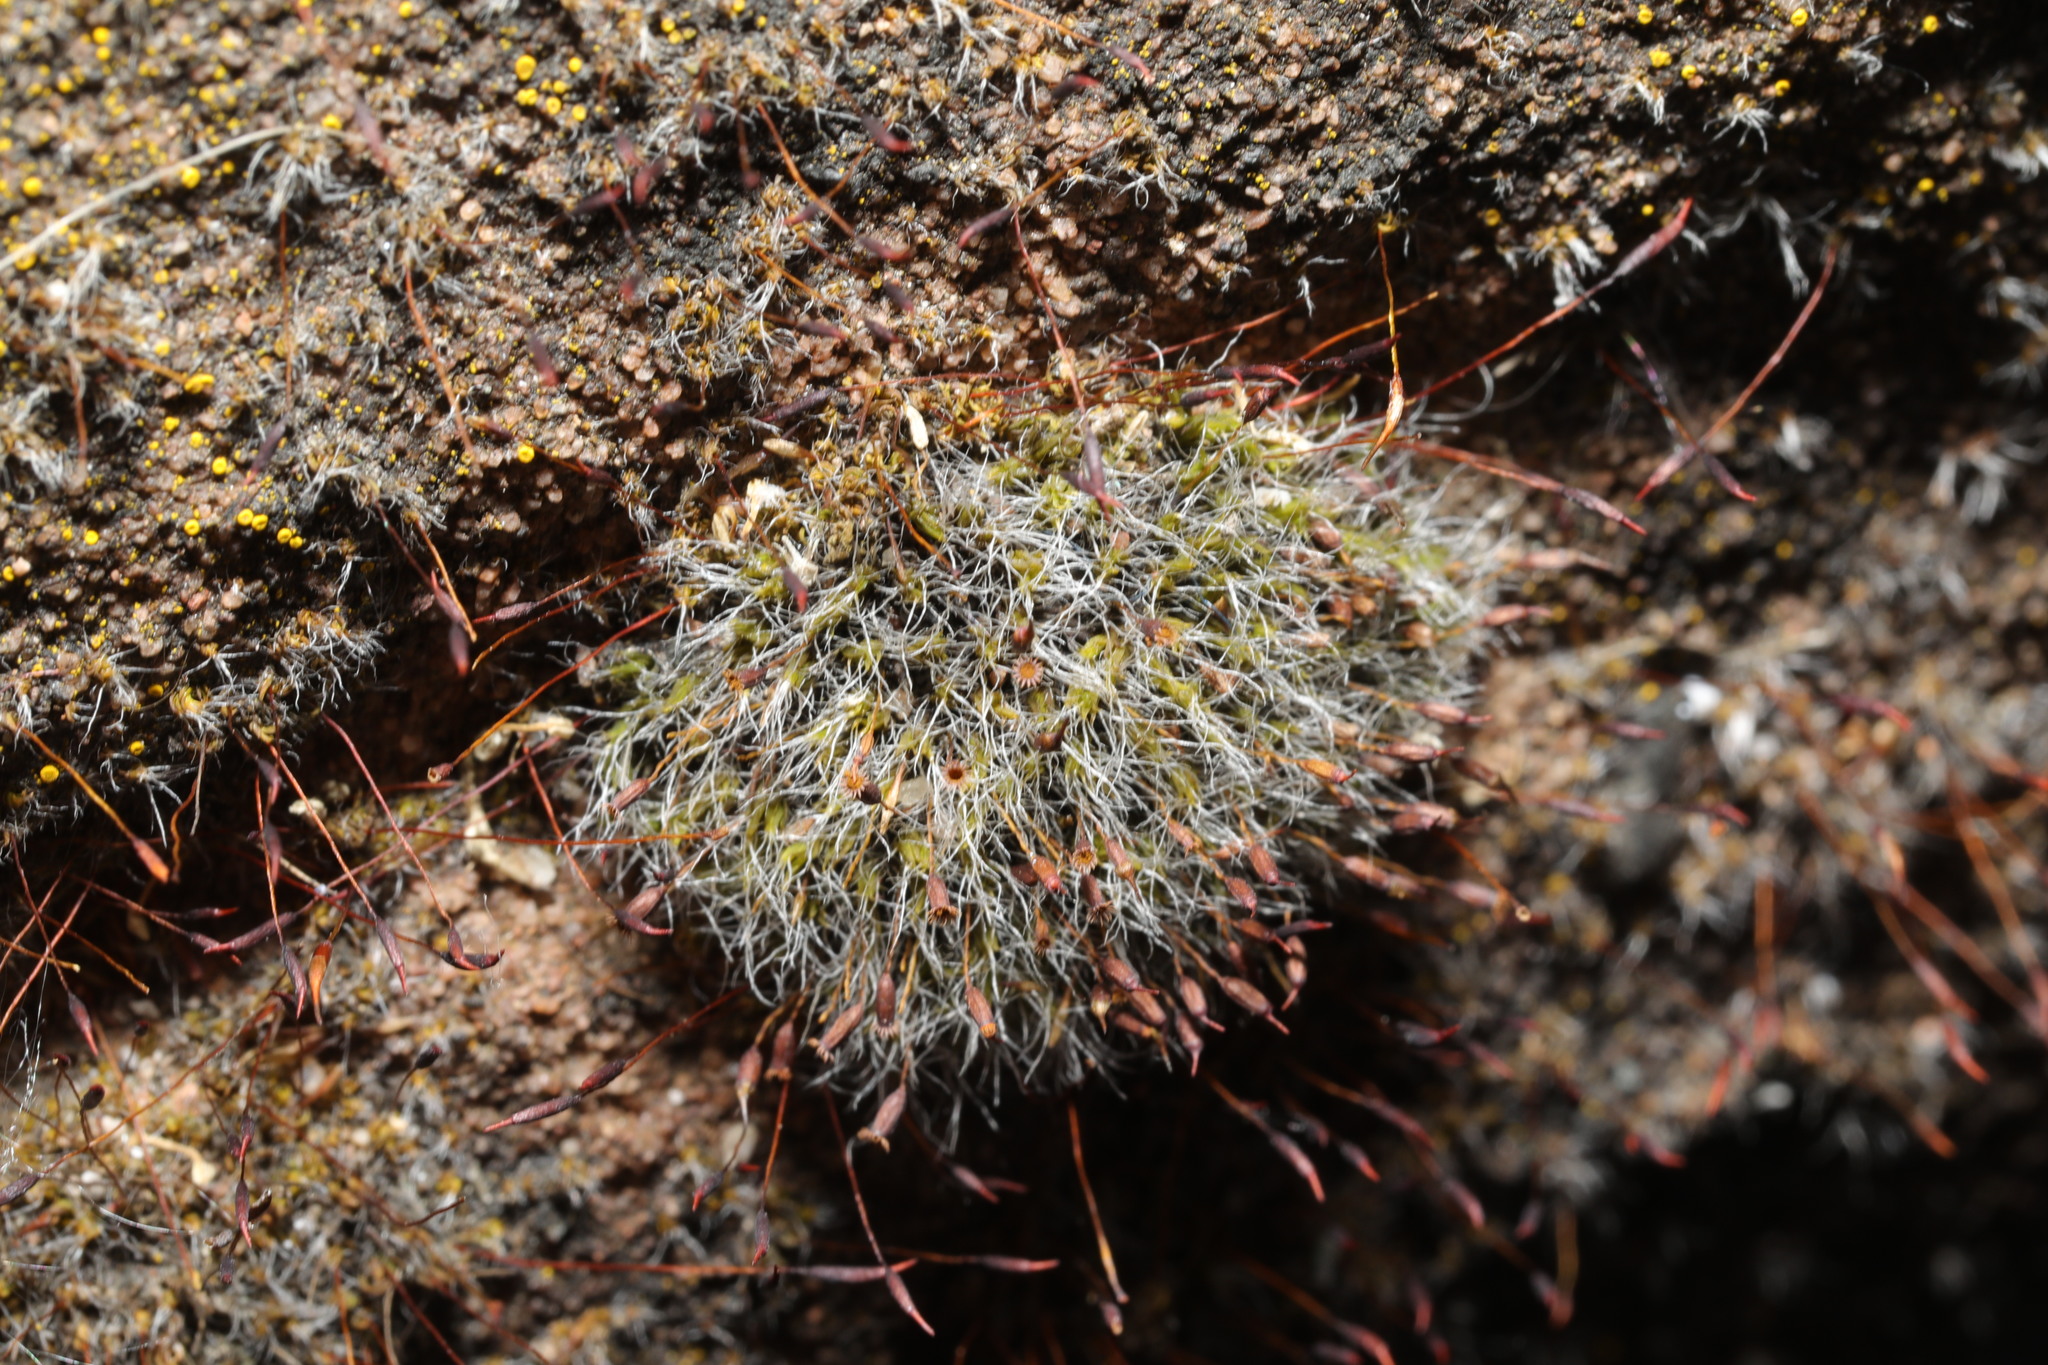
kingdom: Plantae
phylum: Bryophyta
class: Bryopsida
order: Grimmiales
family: Grimmiaceae
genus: Grimmia
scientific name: Grimmia pulvinata
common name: Grey-cushioned grimmia
